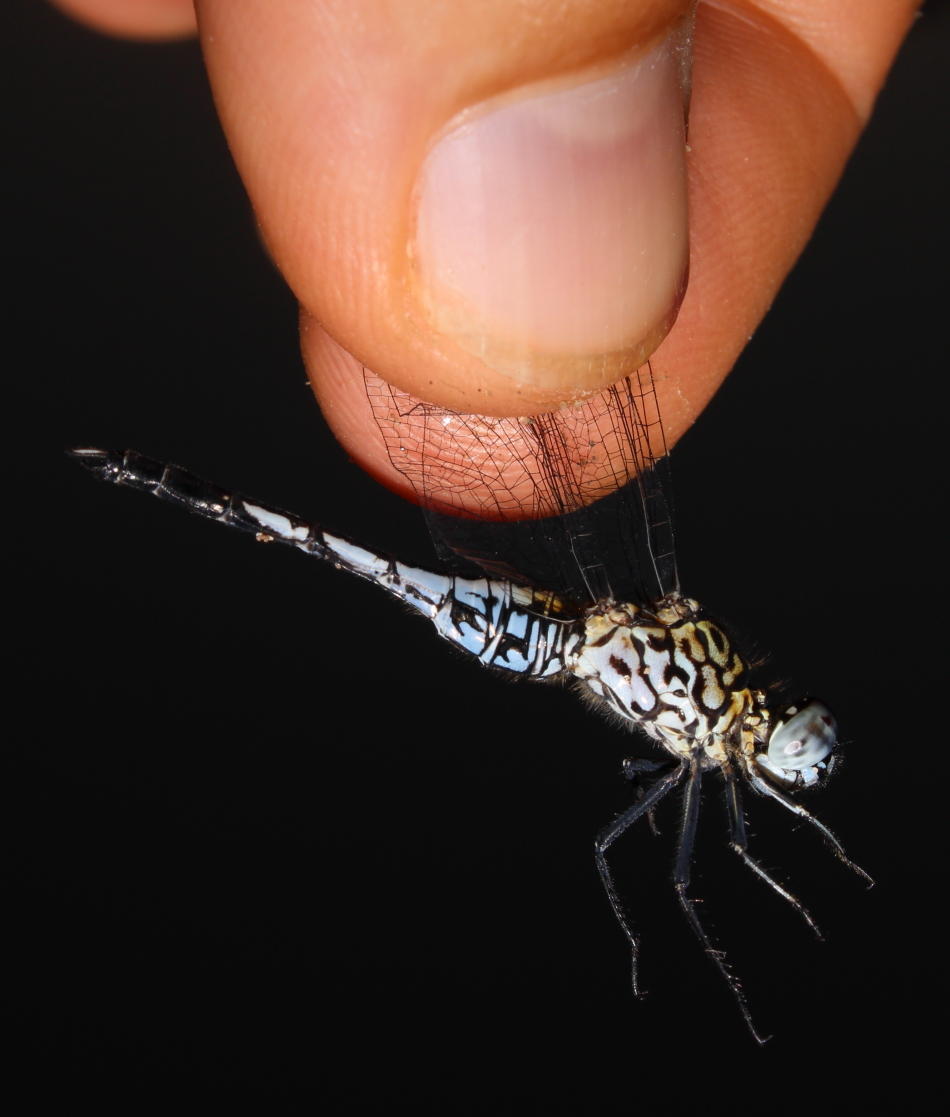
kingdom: Animalia
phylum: Arthropoda
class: Insecta
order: Odonata
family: Libellulidae
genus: Acisoma
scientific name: Acisoma variegatum
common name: Slender pintail
